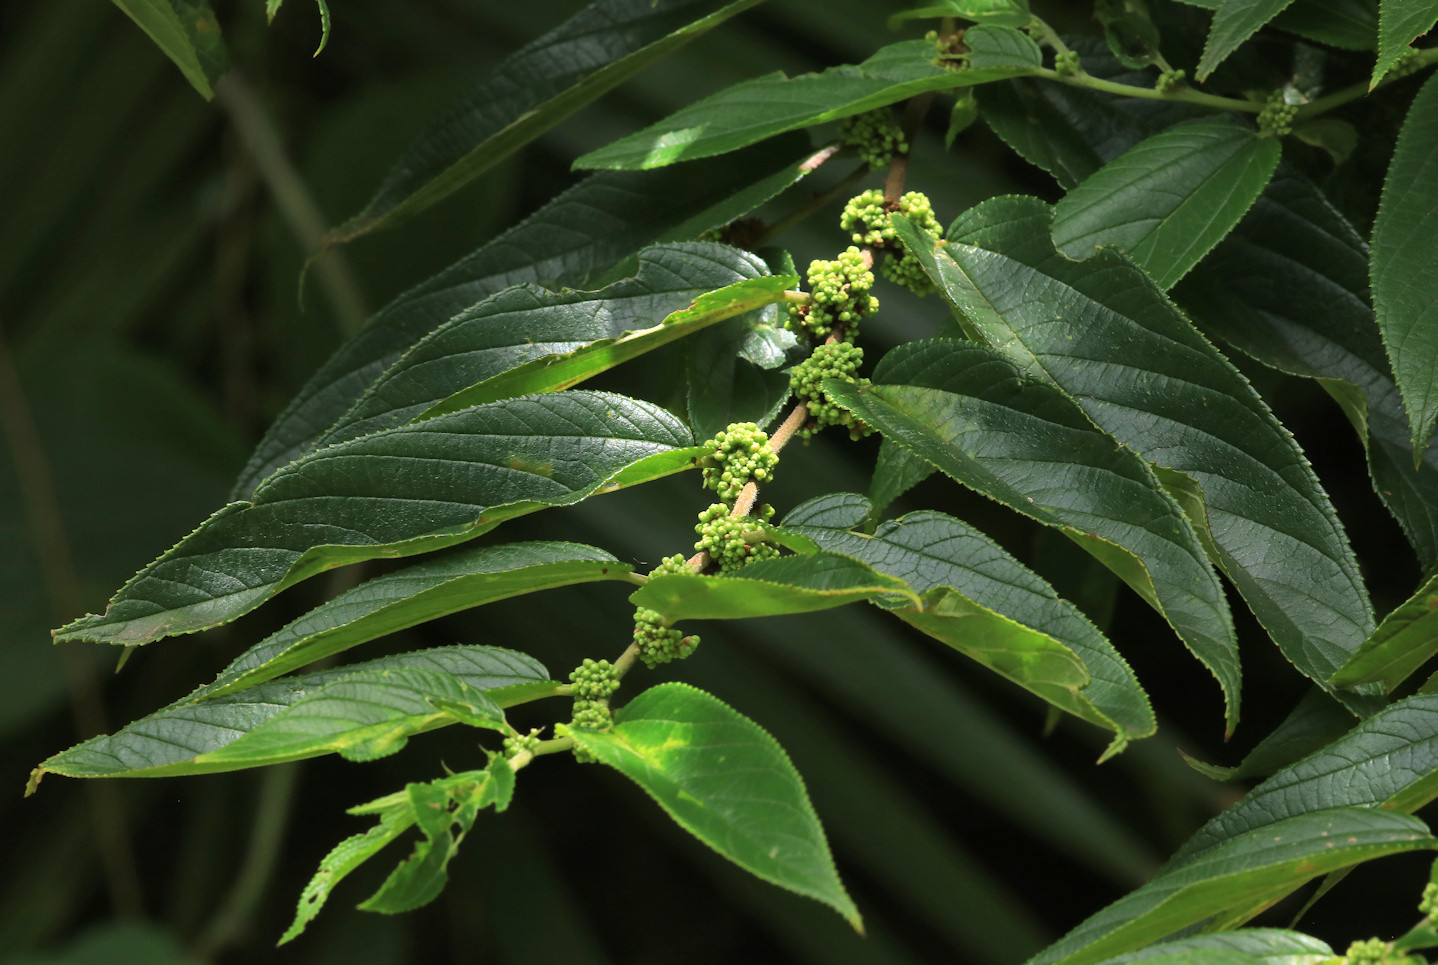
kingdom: Plantae
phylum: Tracheophyta
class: Magnoliopsida
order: Rosales
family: Cannabaceae
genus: Trema
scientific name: Trema orientale
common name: Indian charcoal tree
